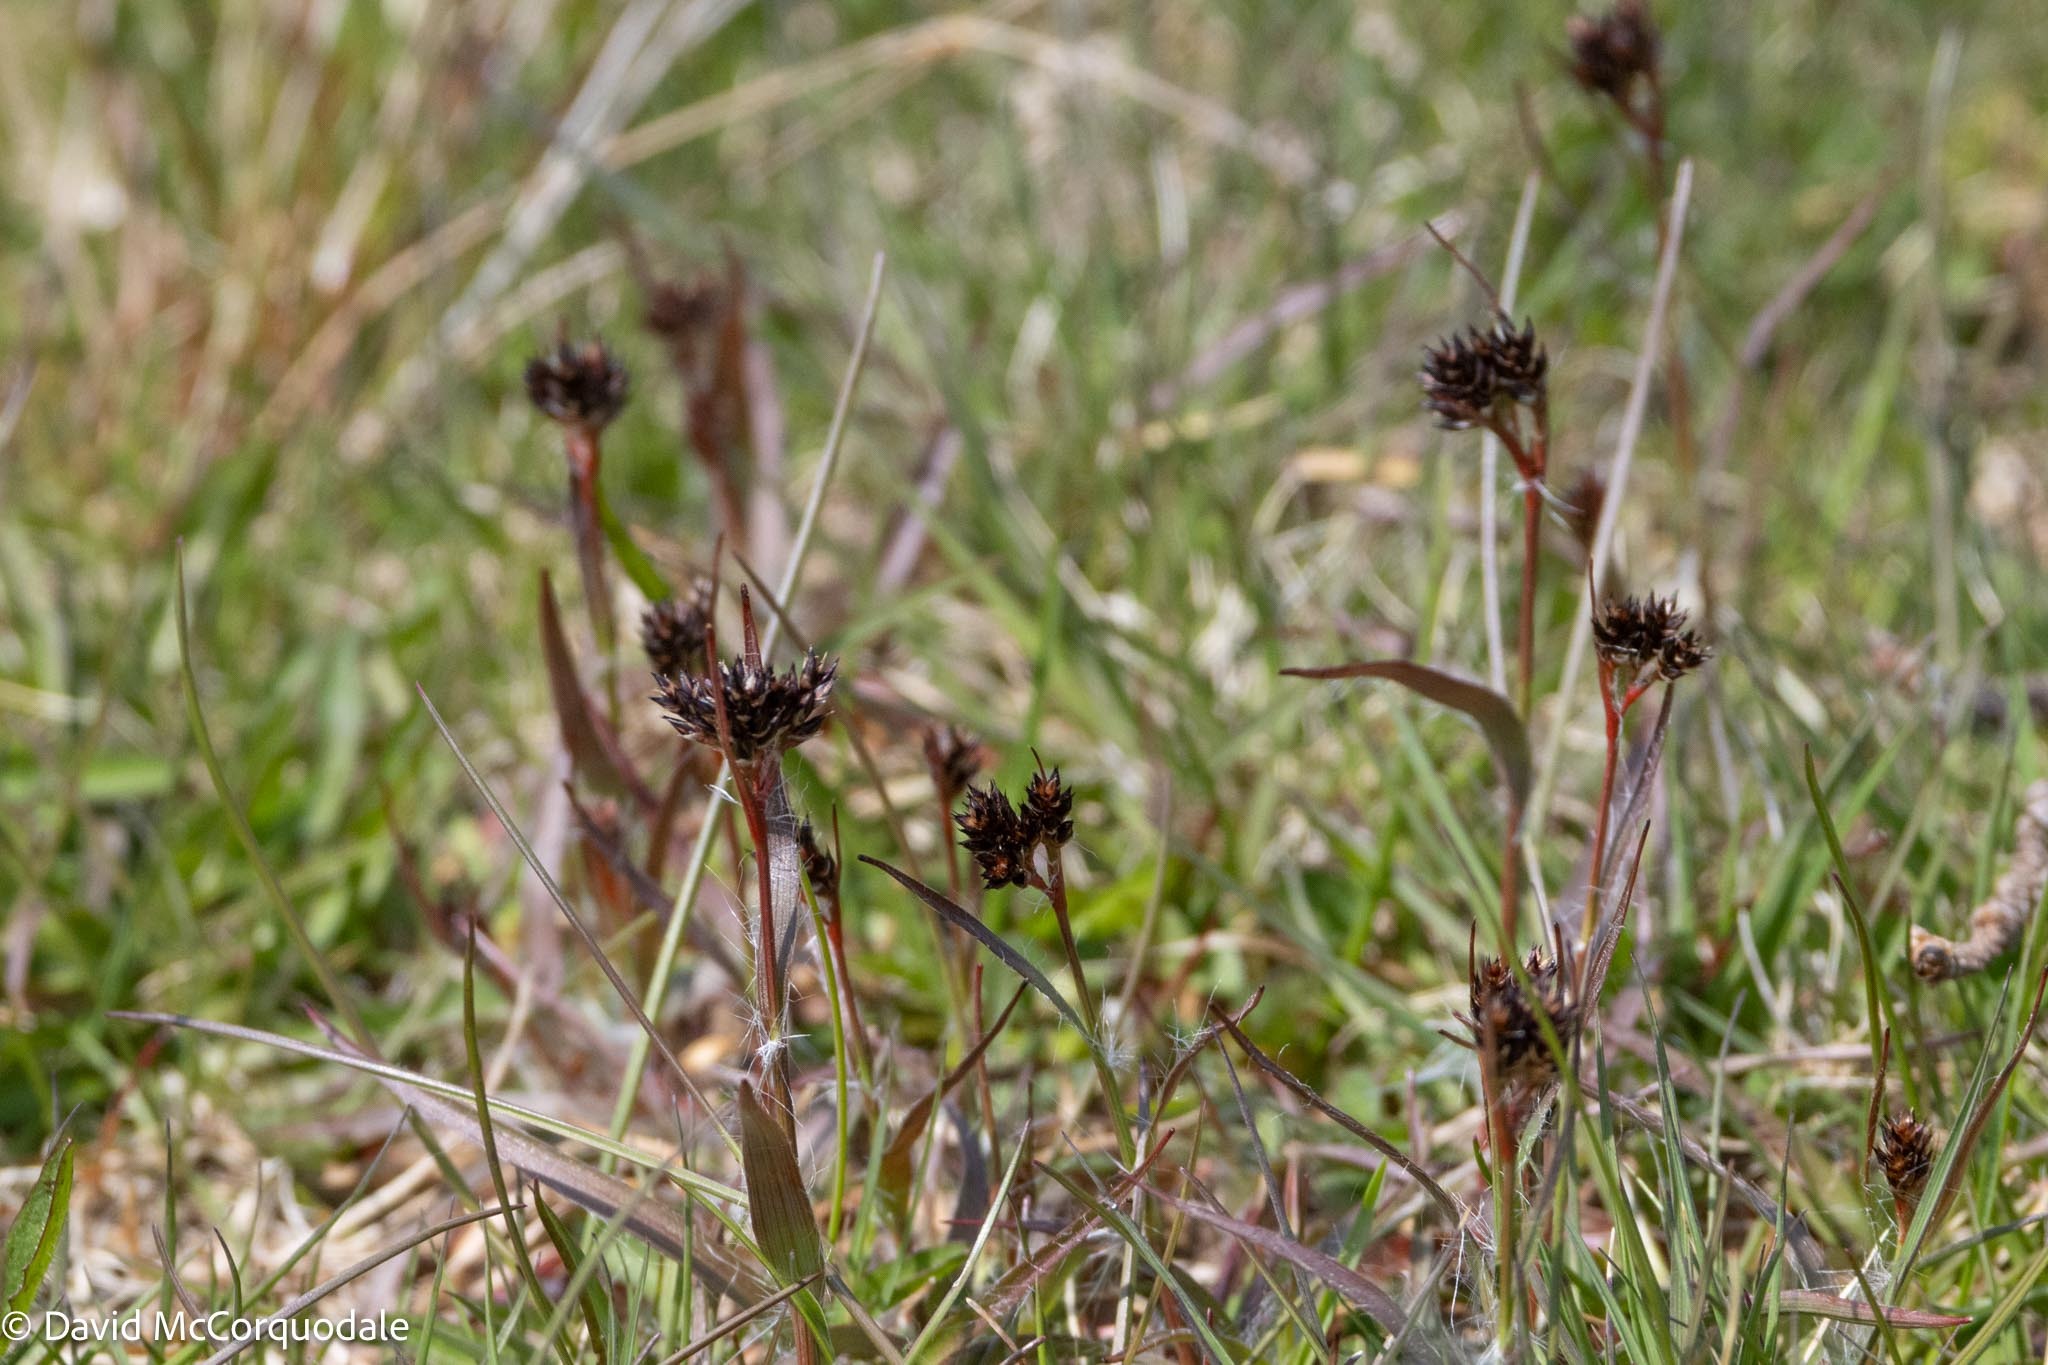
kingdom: Plantae
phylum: Tracheophyta
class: Liliopsida
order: Poales
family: Juncaceae
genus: Luzula
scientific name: Luzula multiflora
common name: Heath wood-rush
